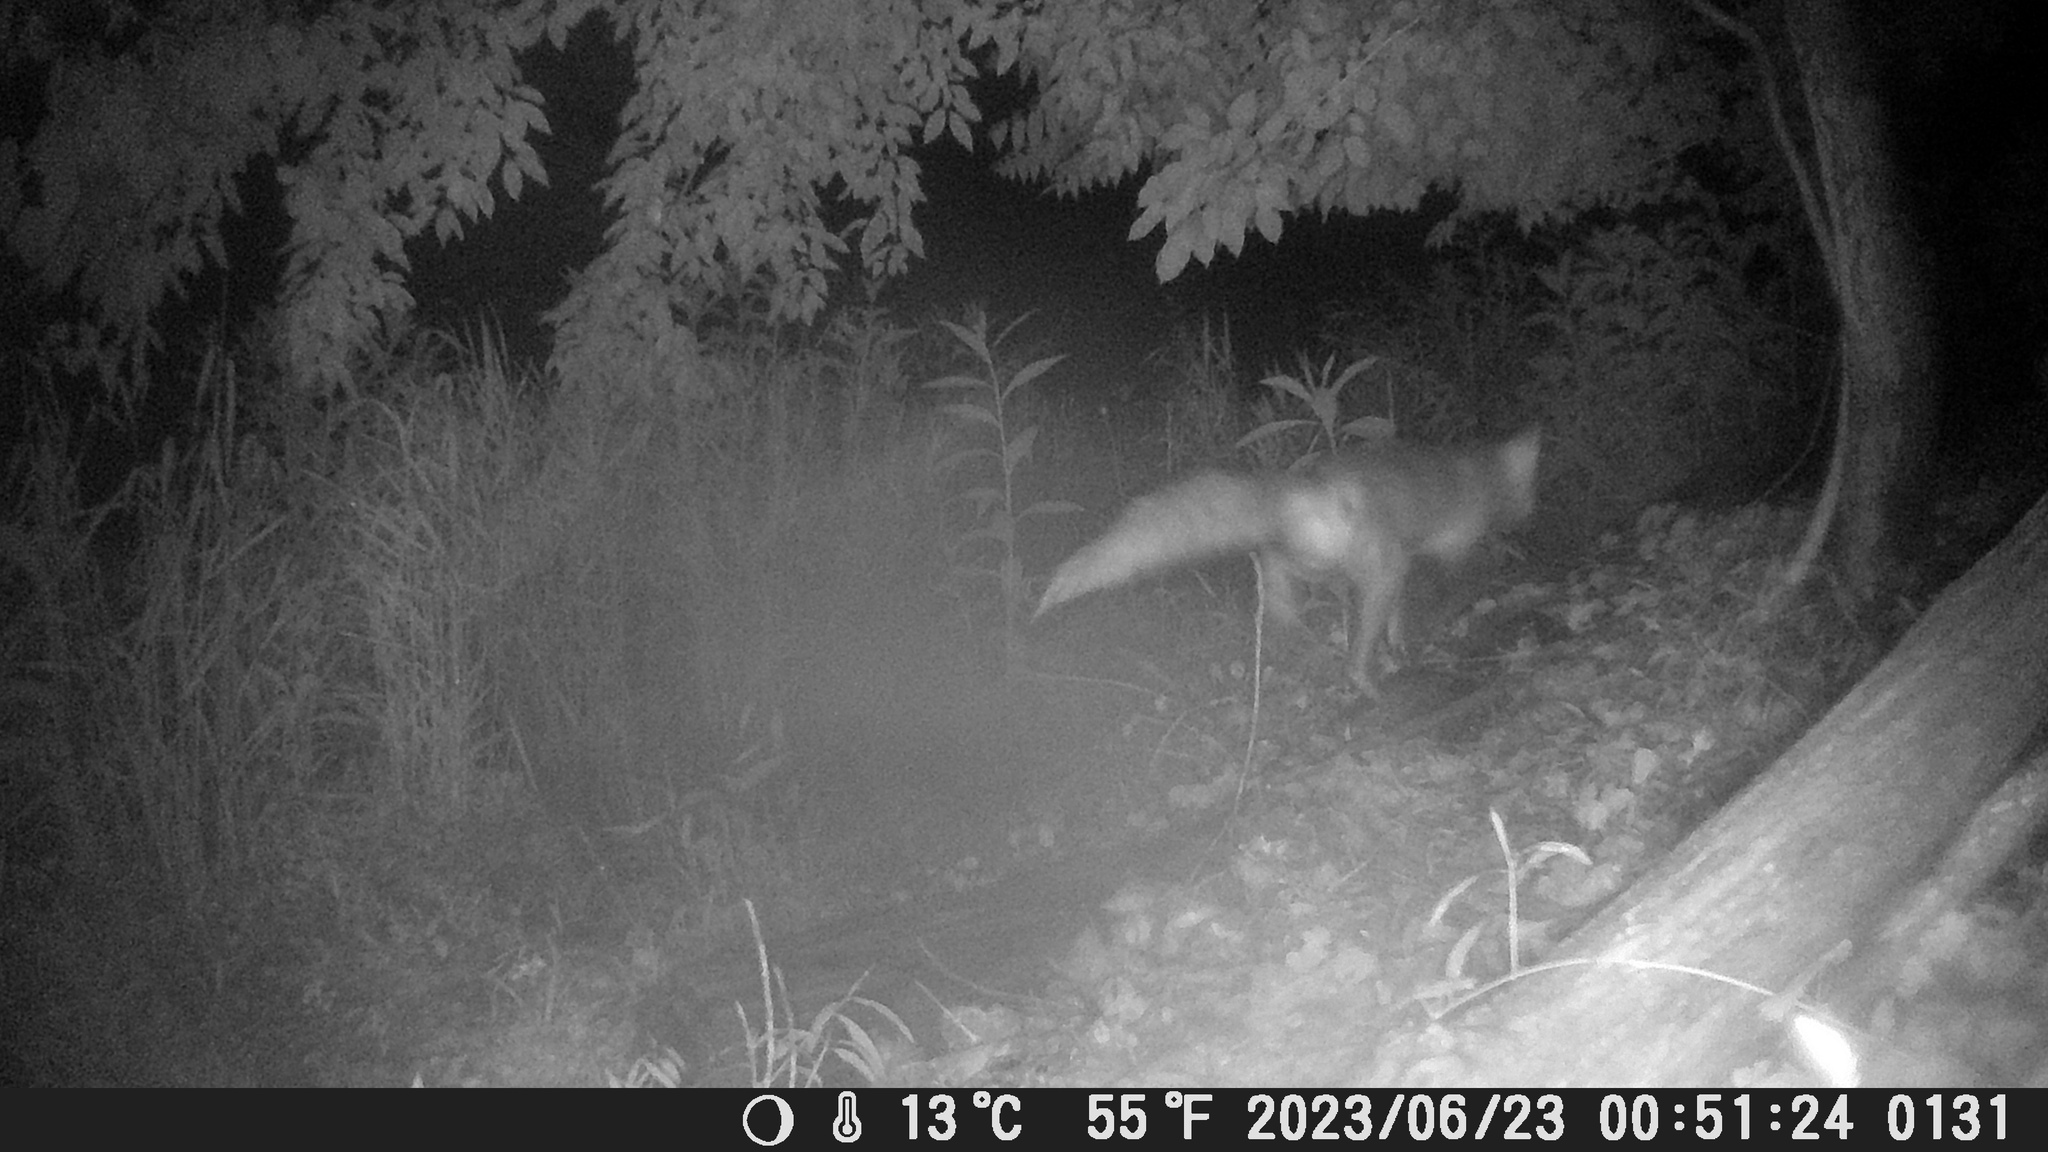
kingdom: Animalia
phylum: Chordata
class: Mammalia
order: Carnivora
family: Canidae
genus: Vulpes
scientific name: Vulpes vulpes
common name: Red fox
